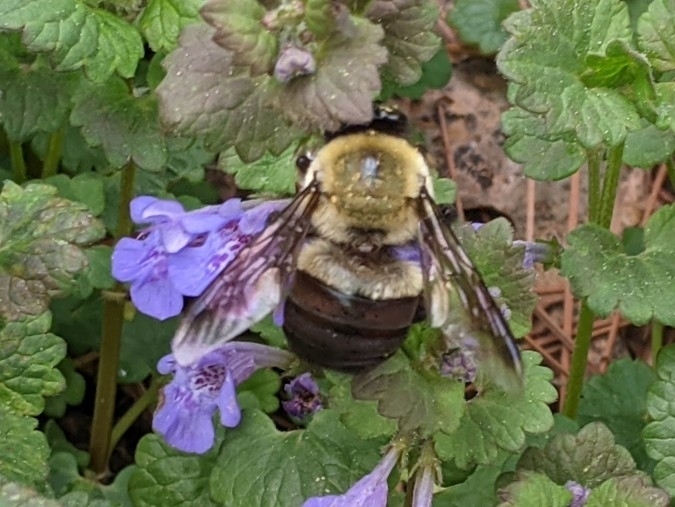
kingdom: Animalia
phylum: Arthropoda
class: Insecta
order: Hymenoptera
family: Apidae
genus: Xylocopa
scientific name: Xylocopa virginica
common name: Carpenter bee
